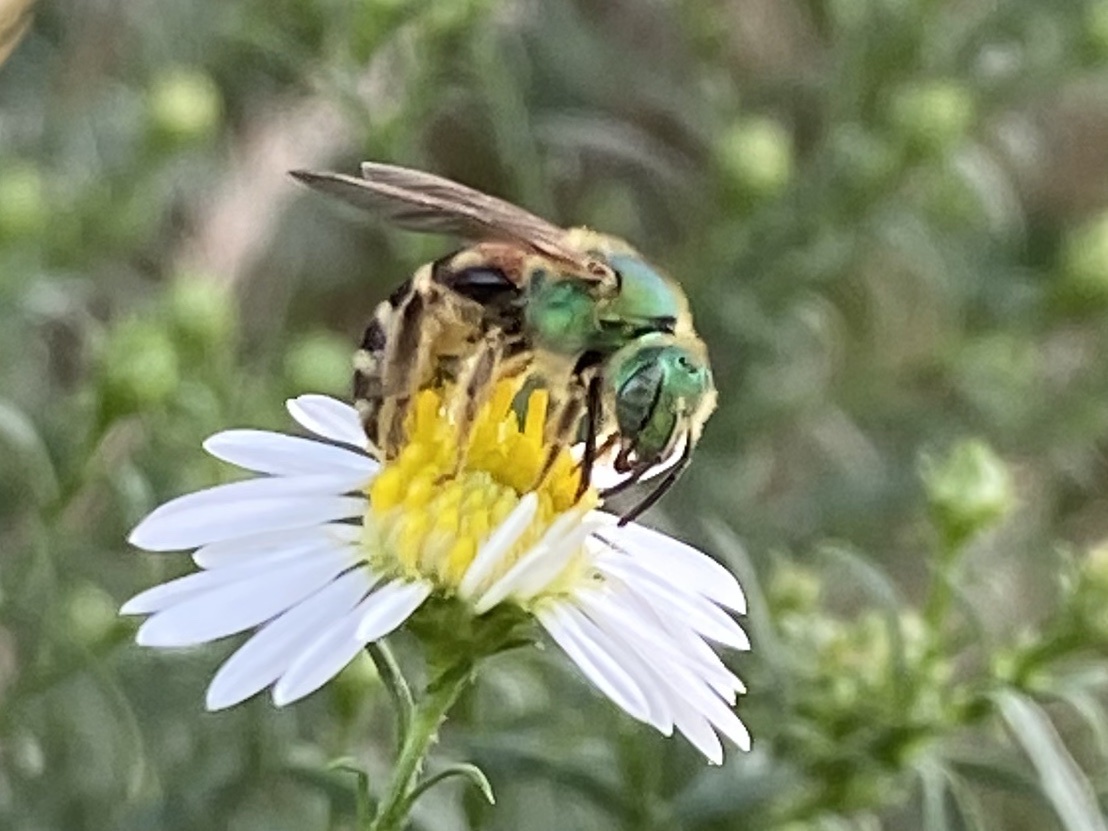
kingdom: Animalia
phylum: Arthropoda
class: Insecta
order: Hymenoptera
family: Halictidae
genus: Agapostemon
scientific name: Agapostemon virescens
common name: Bicolored striped sweat bee
